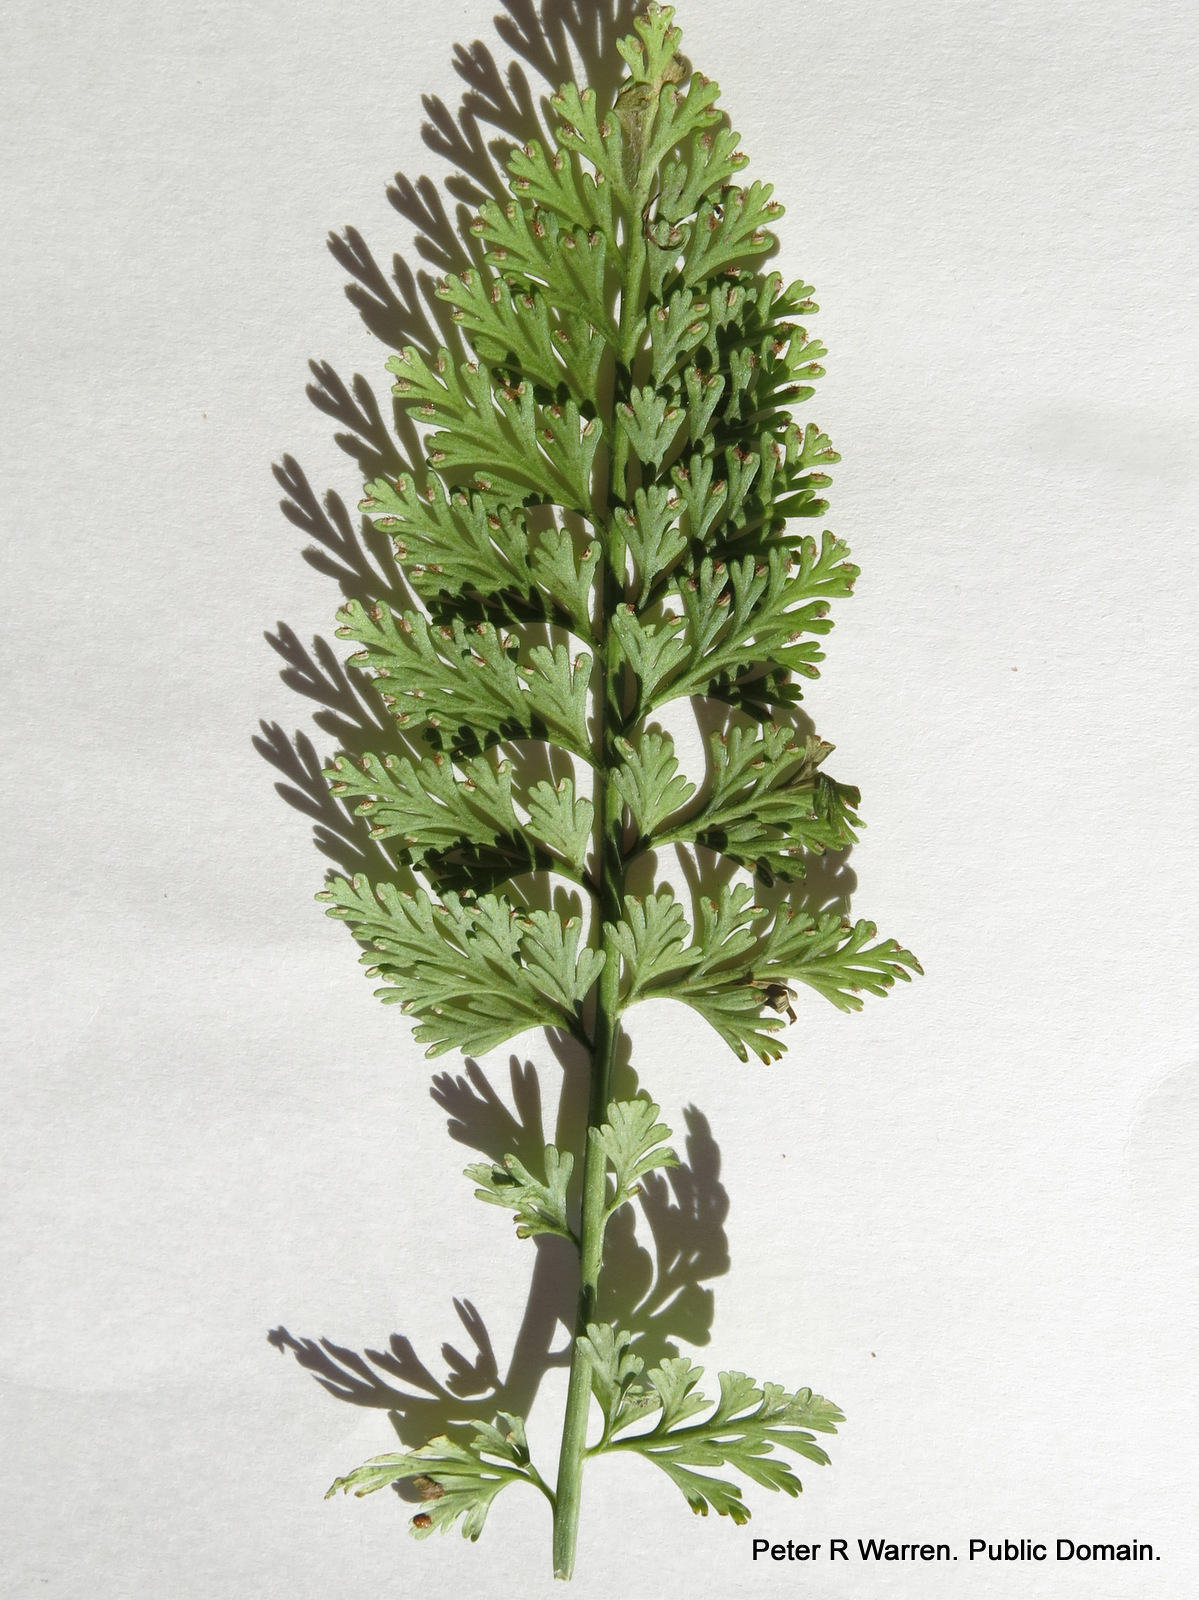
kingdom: Plantae
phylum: Tracheophyta
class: Polypodiopsida
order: Polypodiales
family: Aspleniaceae
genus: Asplenium
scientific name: Asplenium rutifolium
